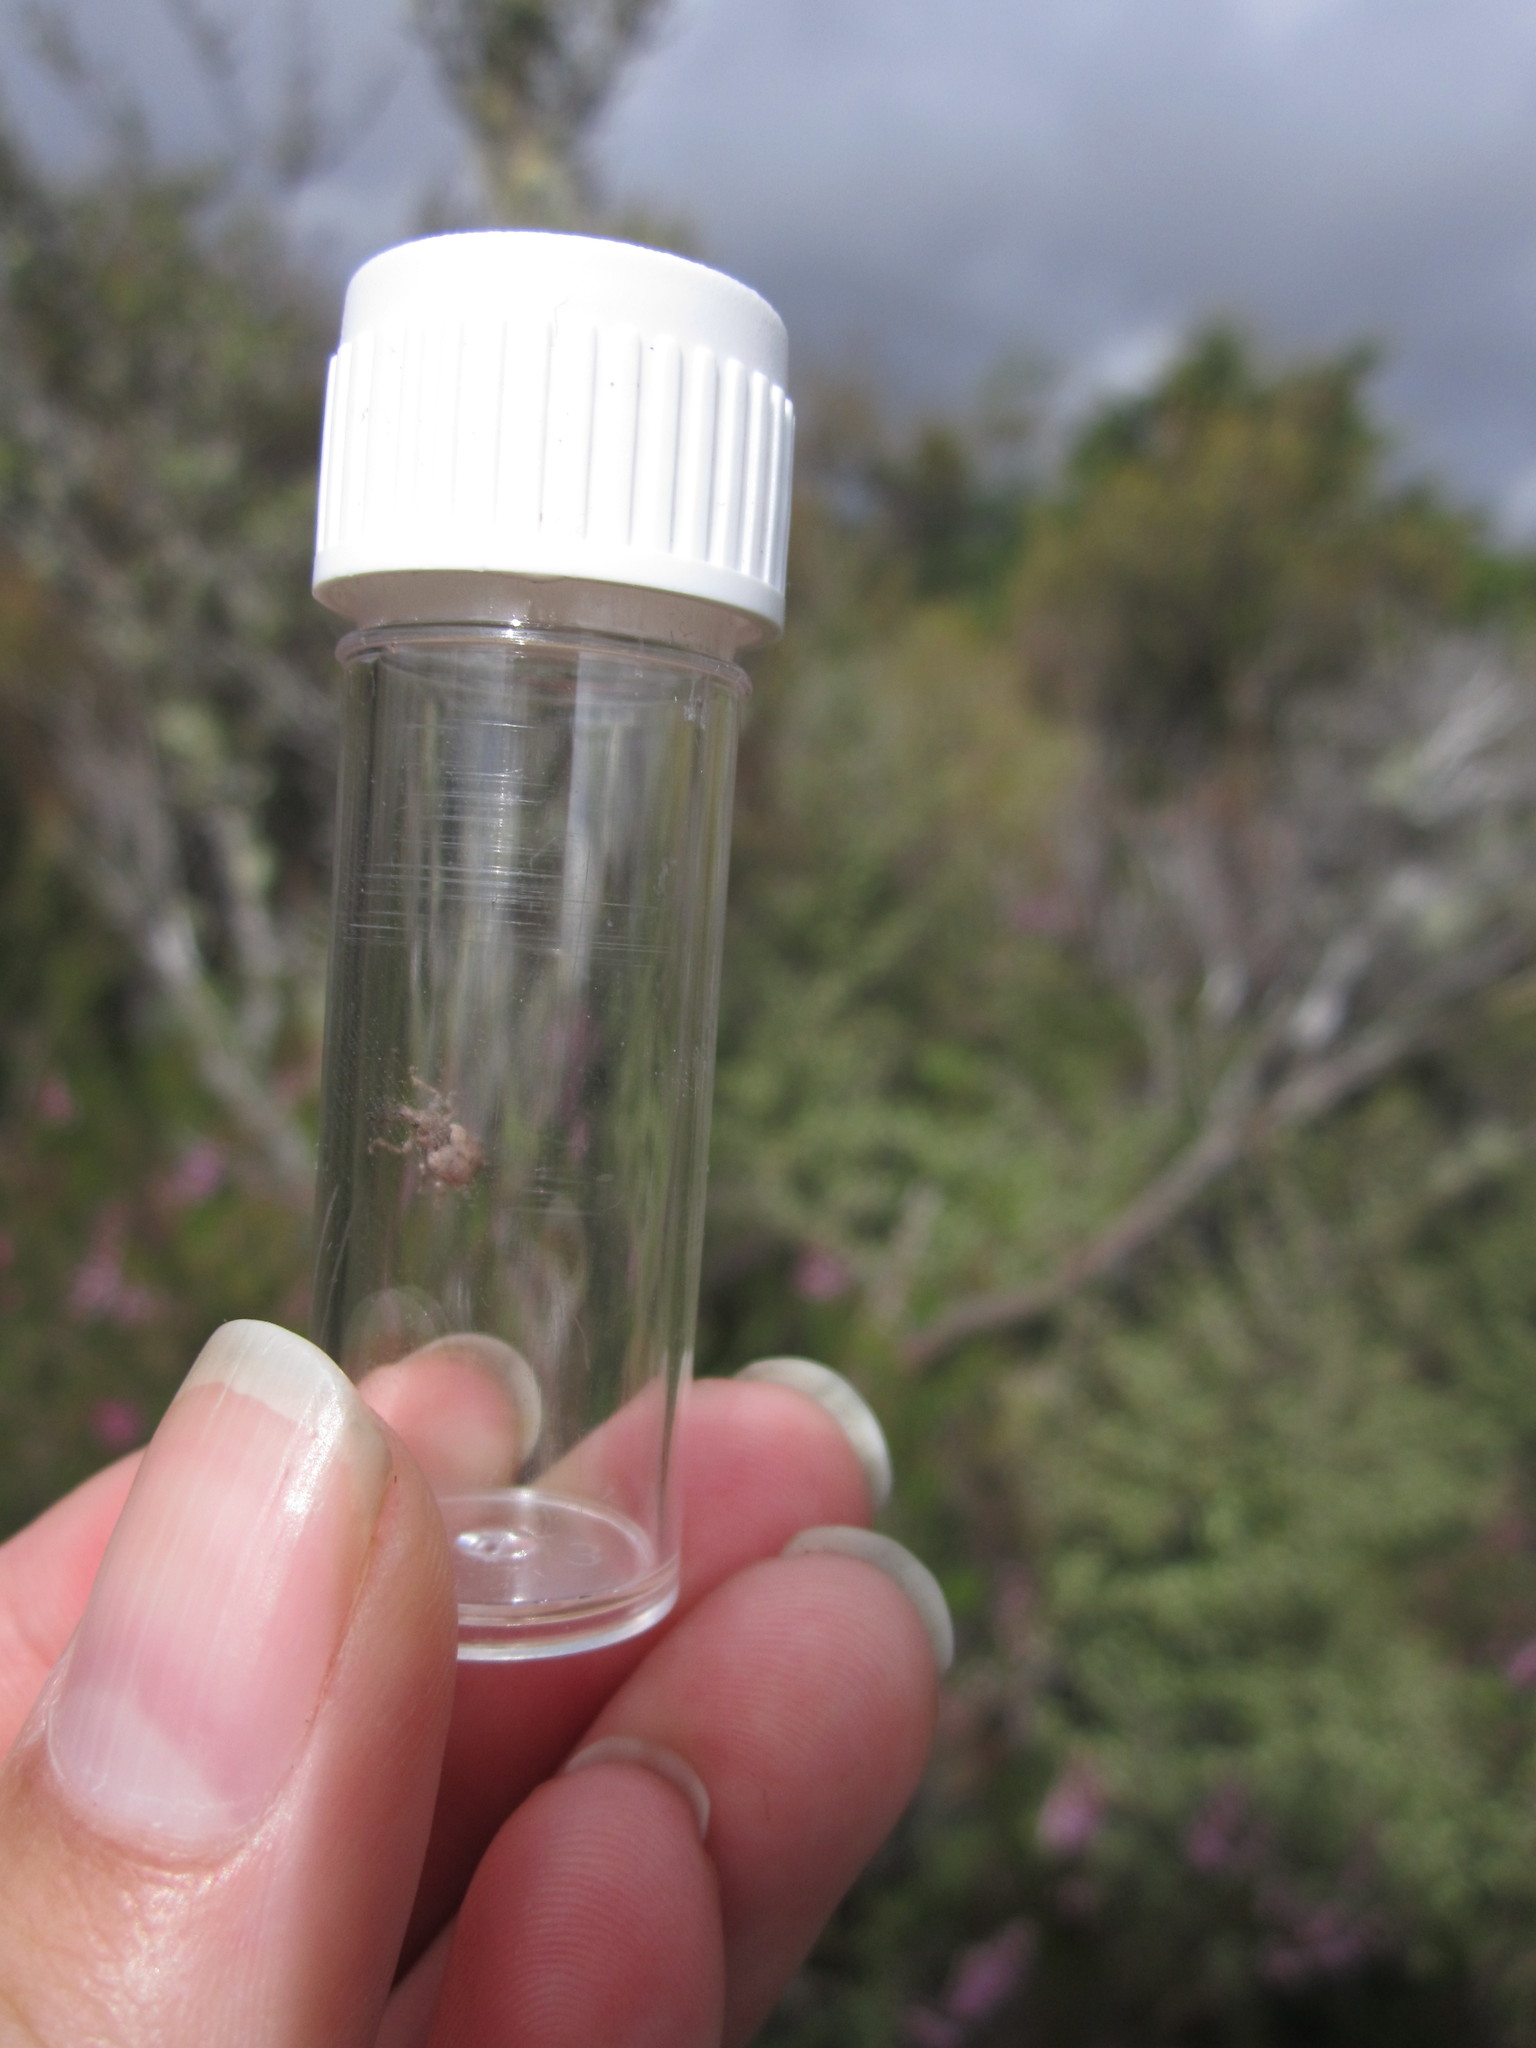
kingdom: Animalia
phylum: Arthropoda
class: Insecta
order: Coleoptera
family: Curculionidae
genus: Chalepistes
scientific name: Chalepistes costifer
